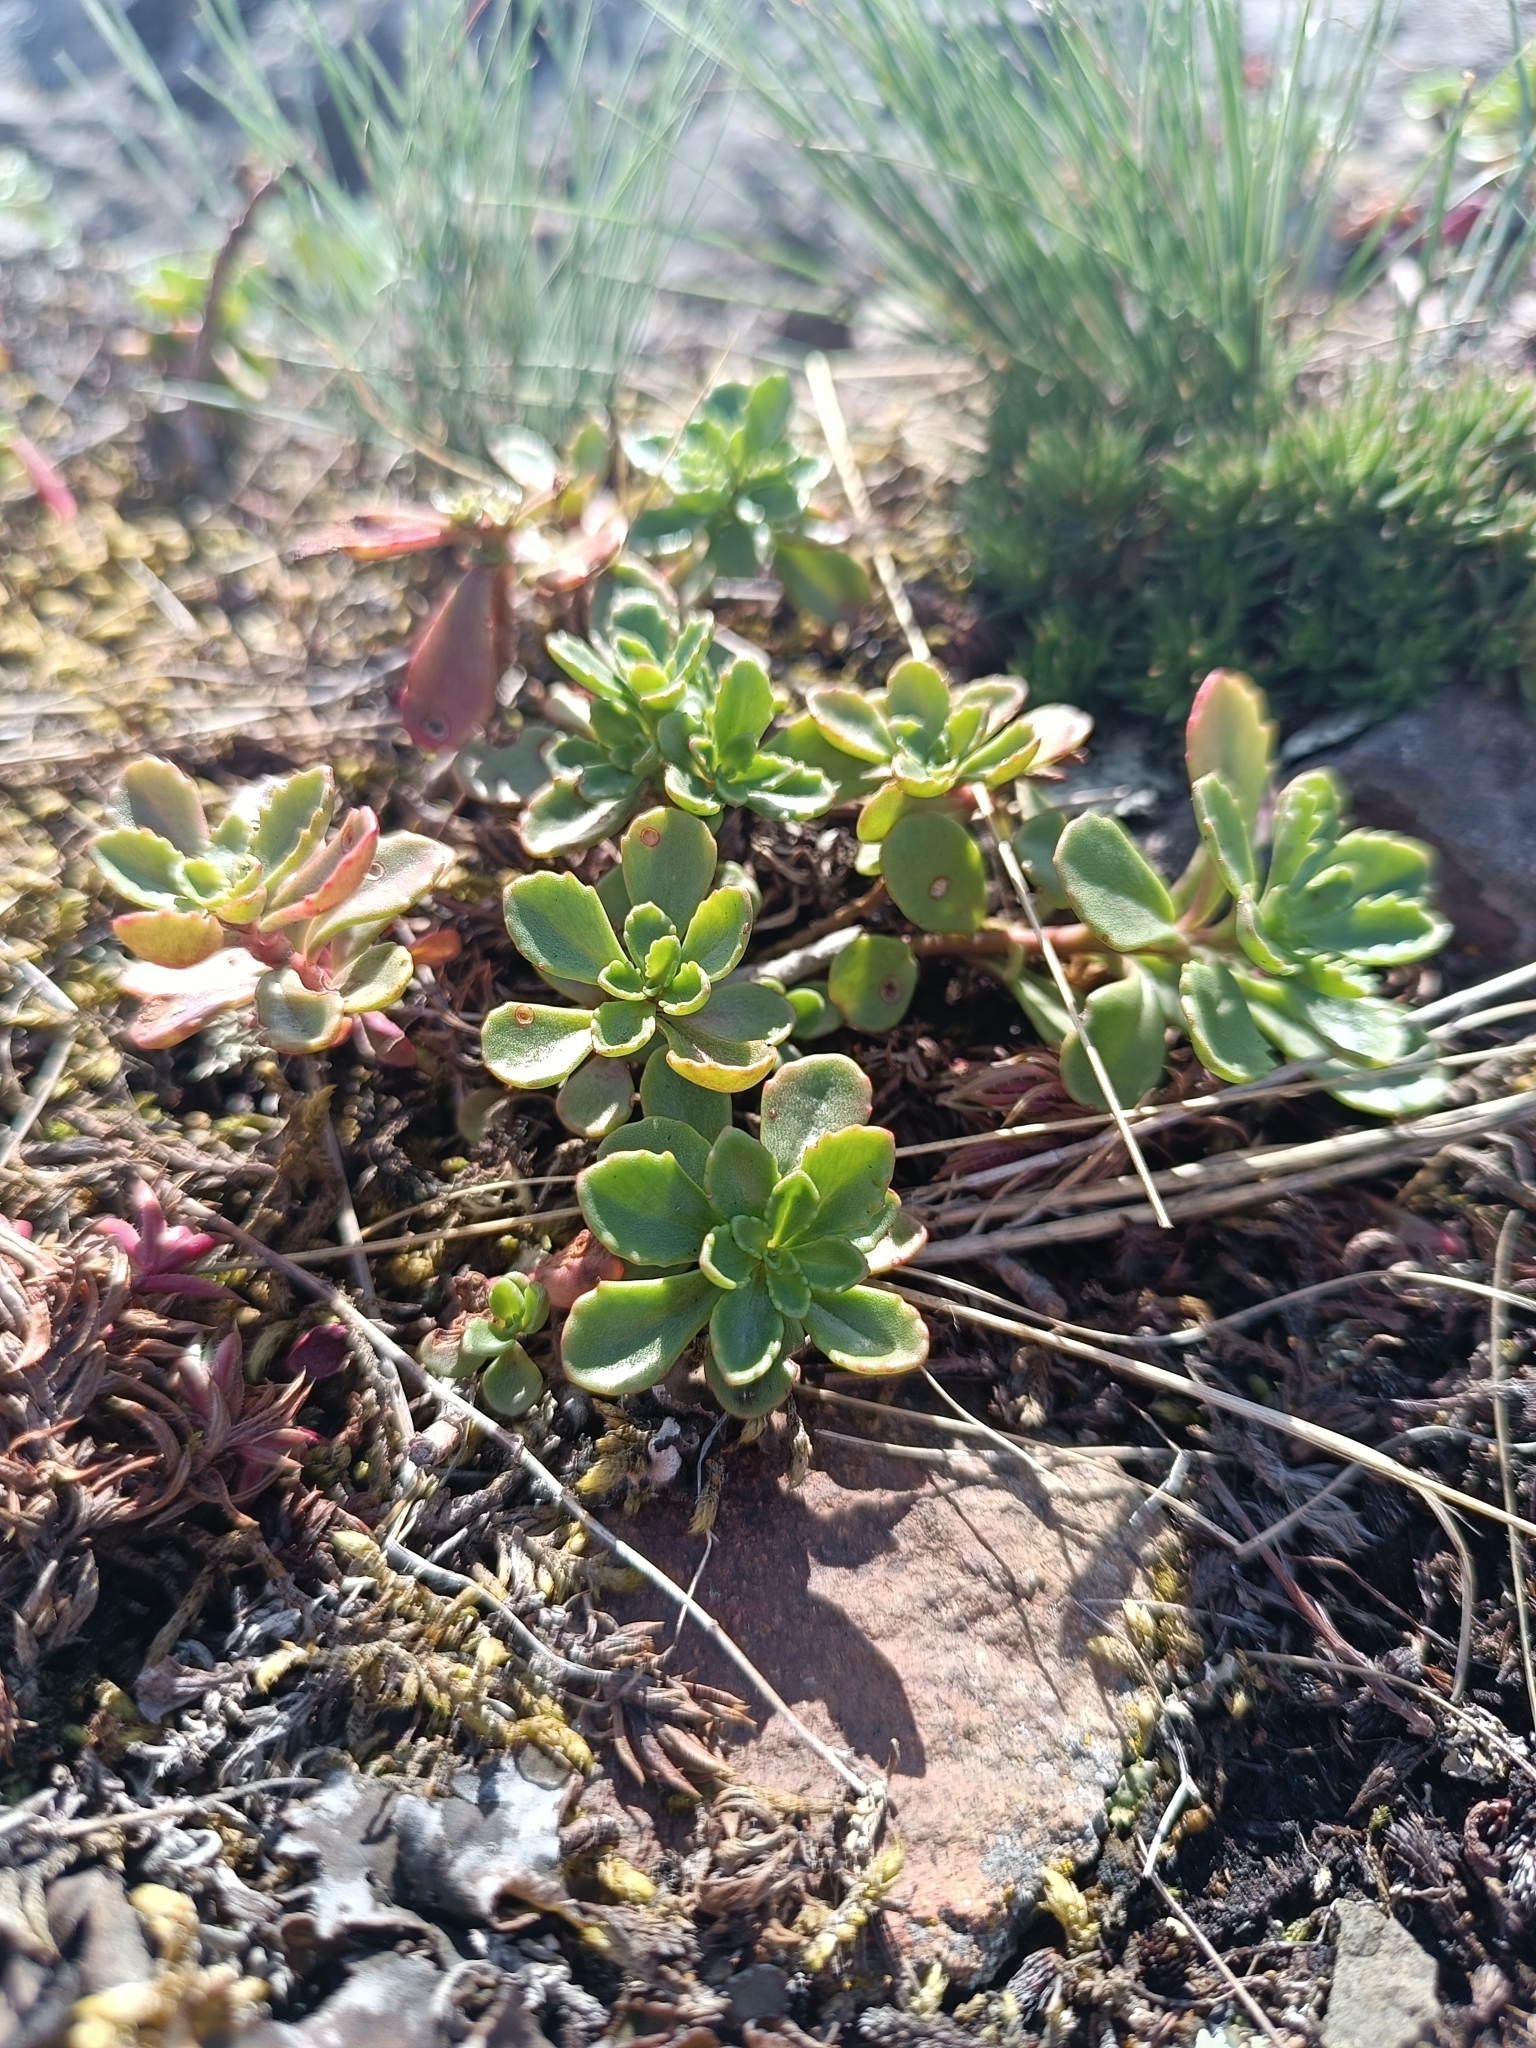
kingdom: Plantae
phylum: Tracheophyta
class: Magnoliopsida
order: Saxifragales
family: Crassulaceae
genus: Phedimus
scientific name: Phedimus hybridus
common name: Hybrid stonecrop
